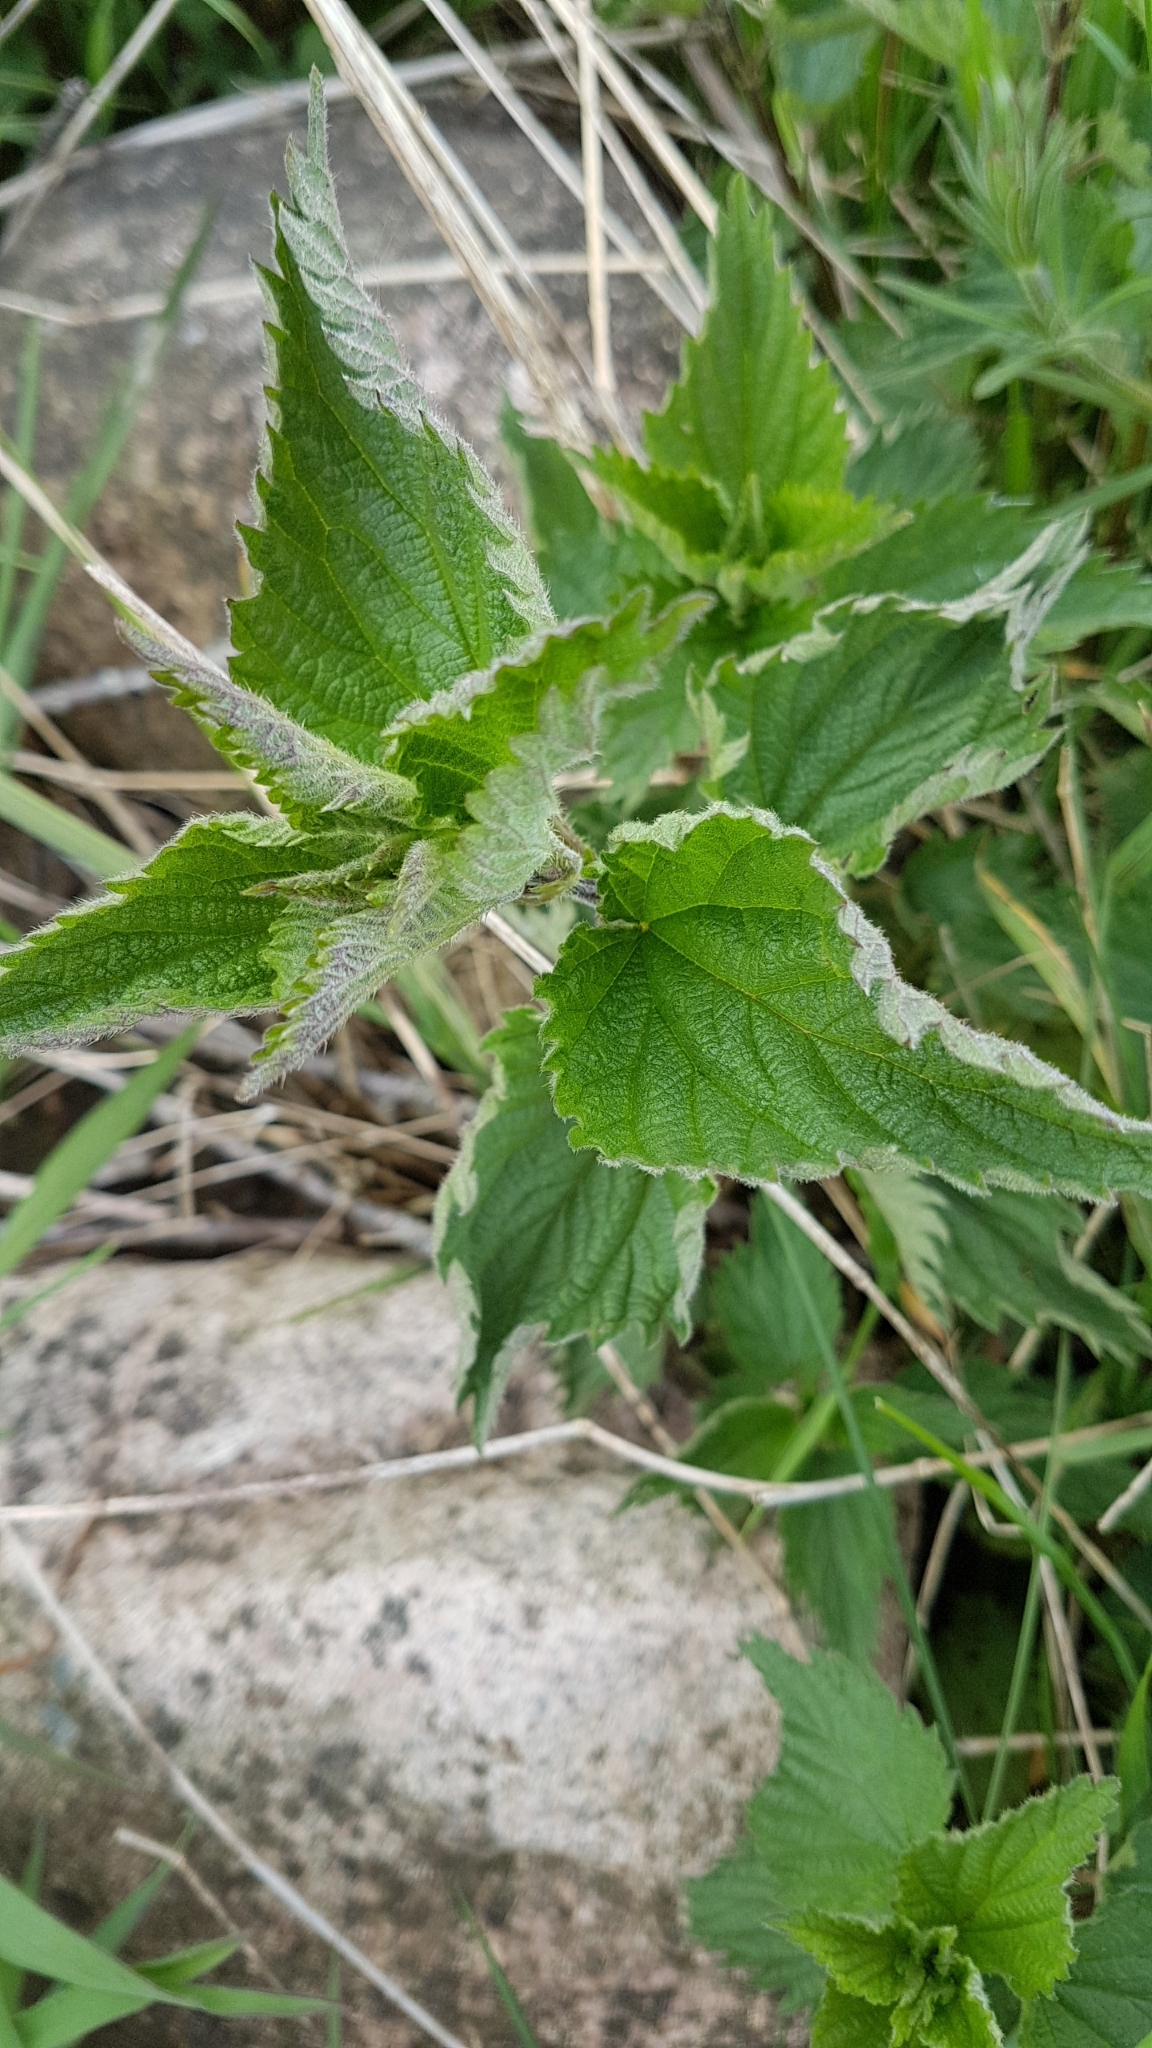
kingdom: Plantae
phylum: Tracheophyta
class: Magnoliopsida
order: Rosales
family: Urticaceae
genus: Urtica
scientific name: Urtica dioica
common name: Common nettle
